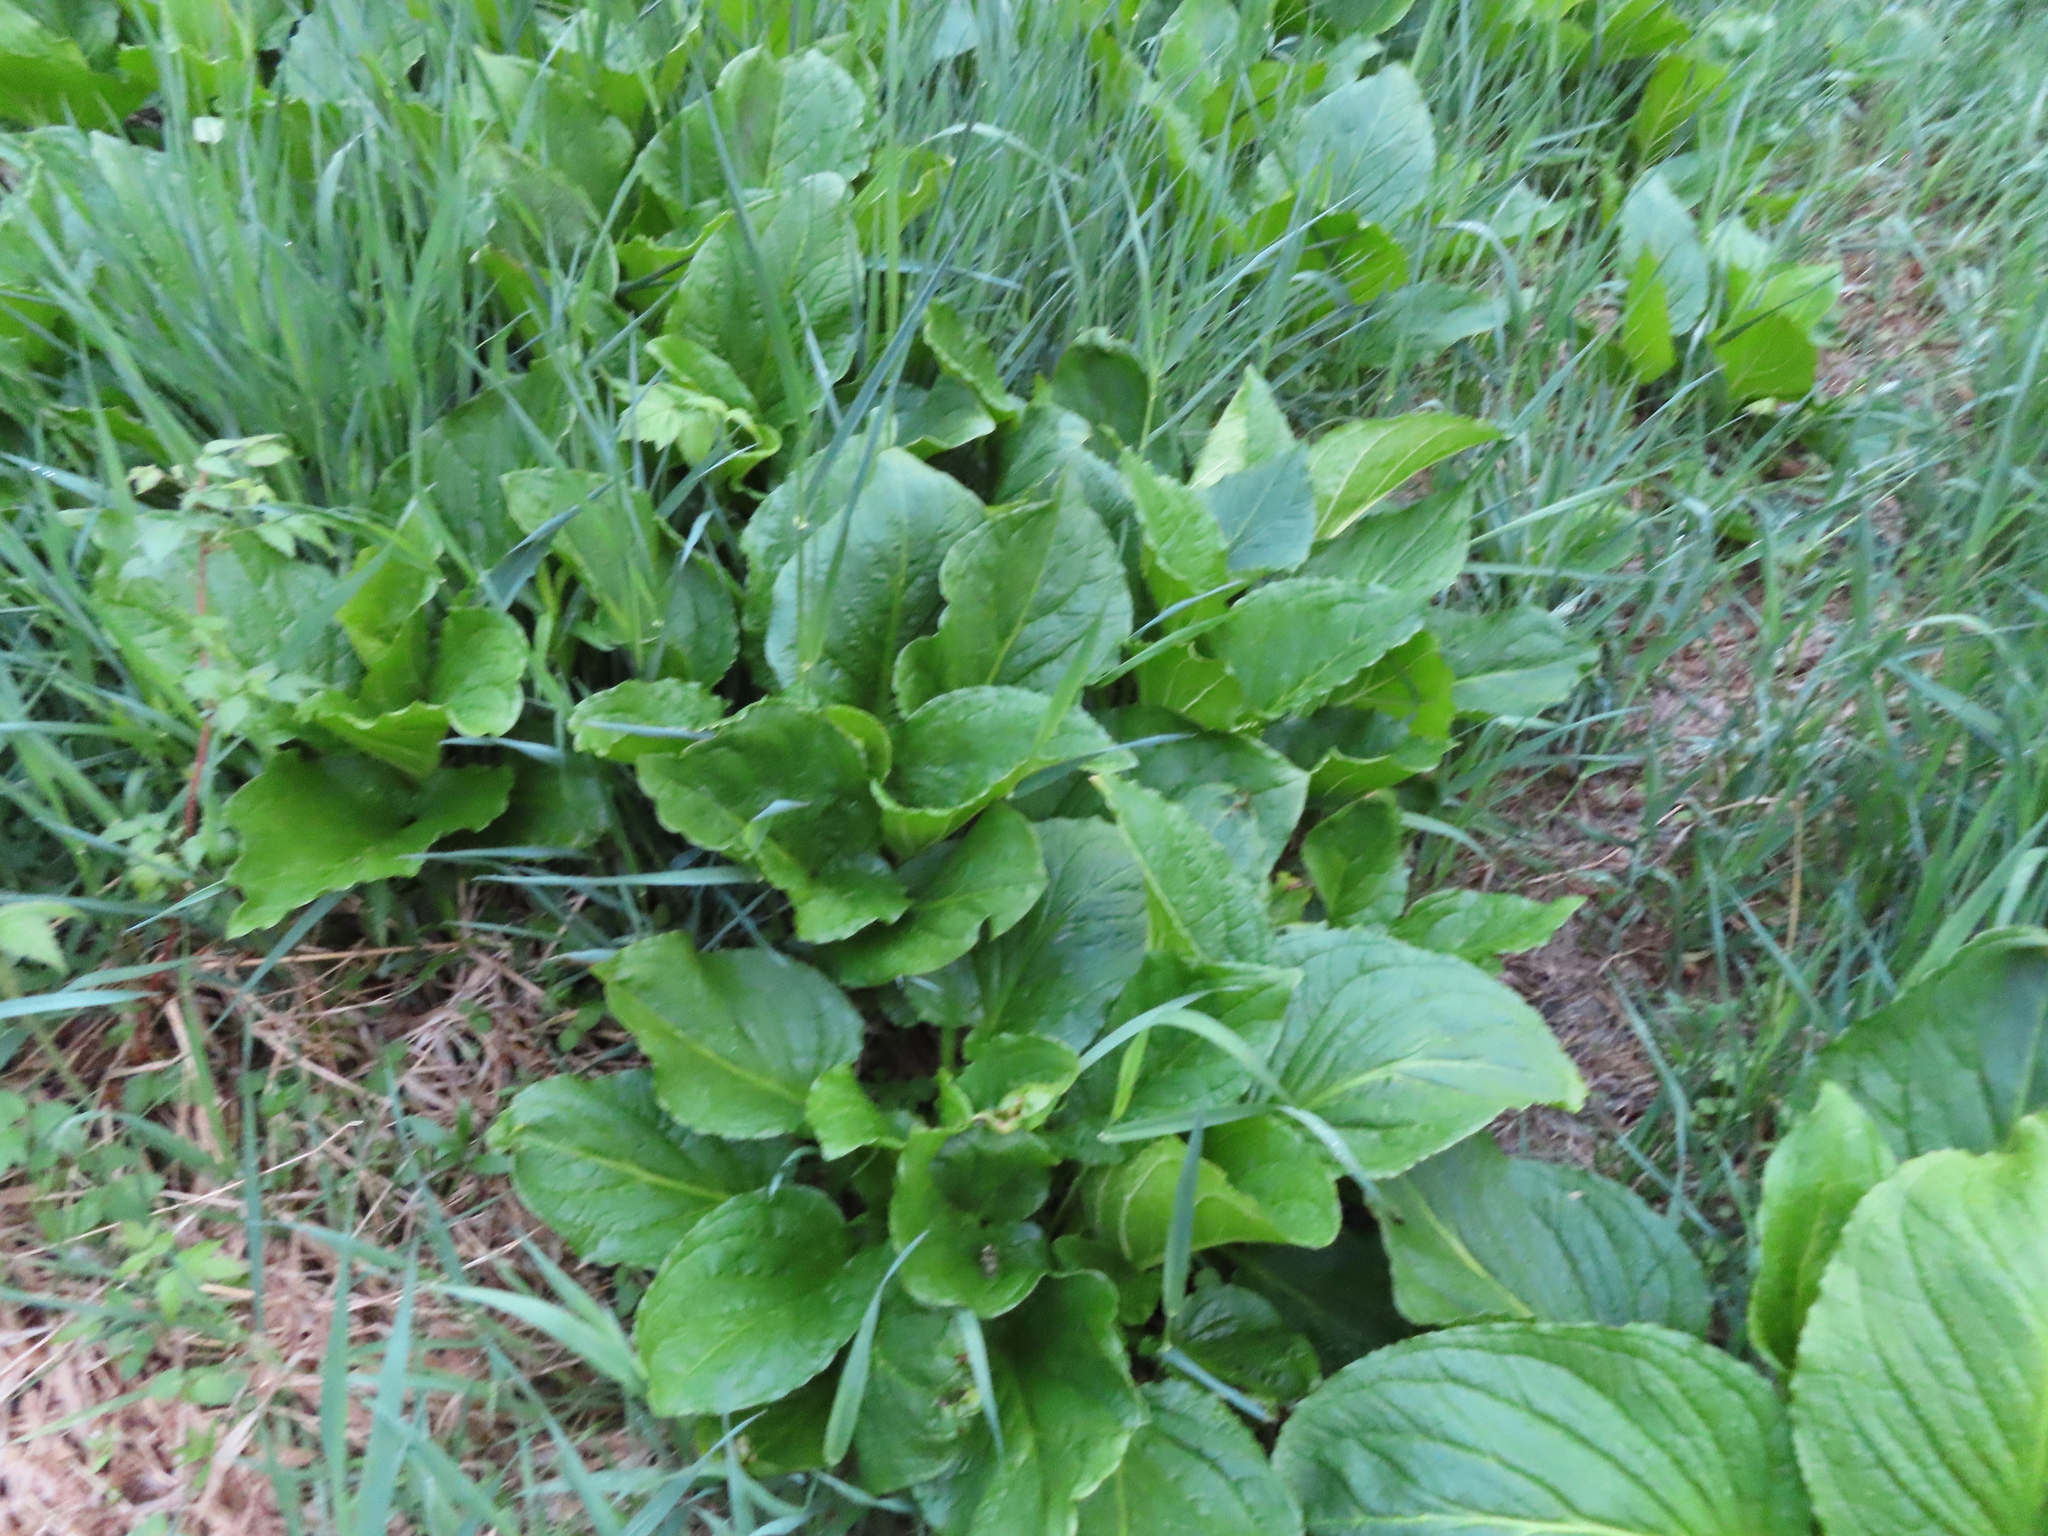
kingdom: Plantae
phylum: Tracheophyta
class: Liliopsida
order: Alismatales
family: Araceae
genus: Symplocarpus
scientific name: Symplocarpus foetidus
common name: Eastern skunk cabbage
